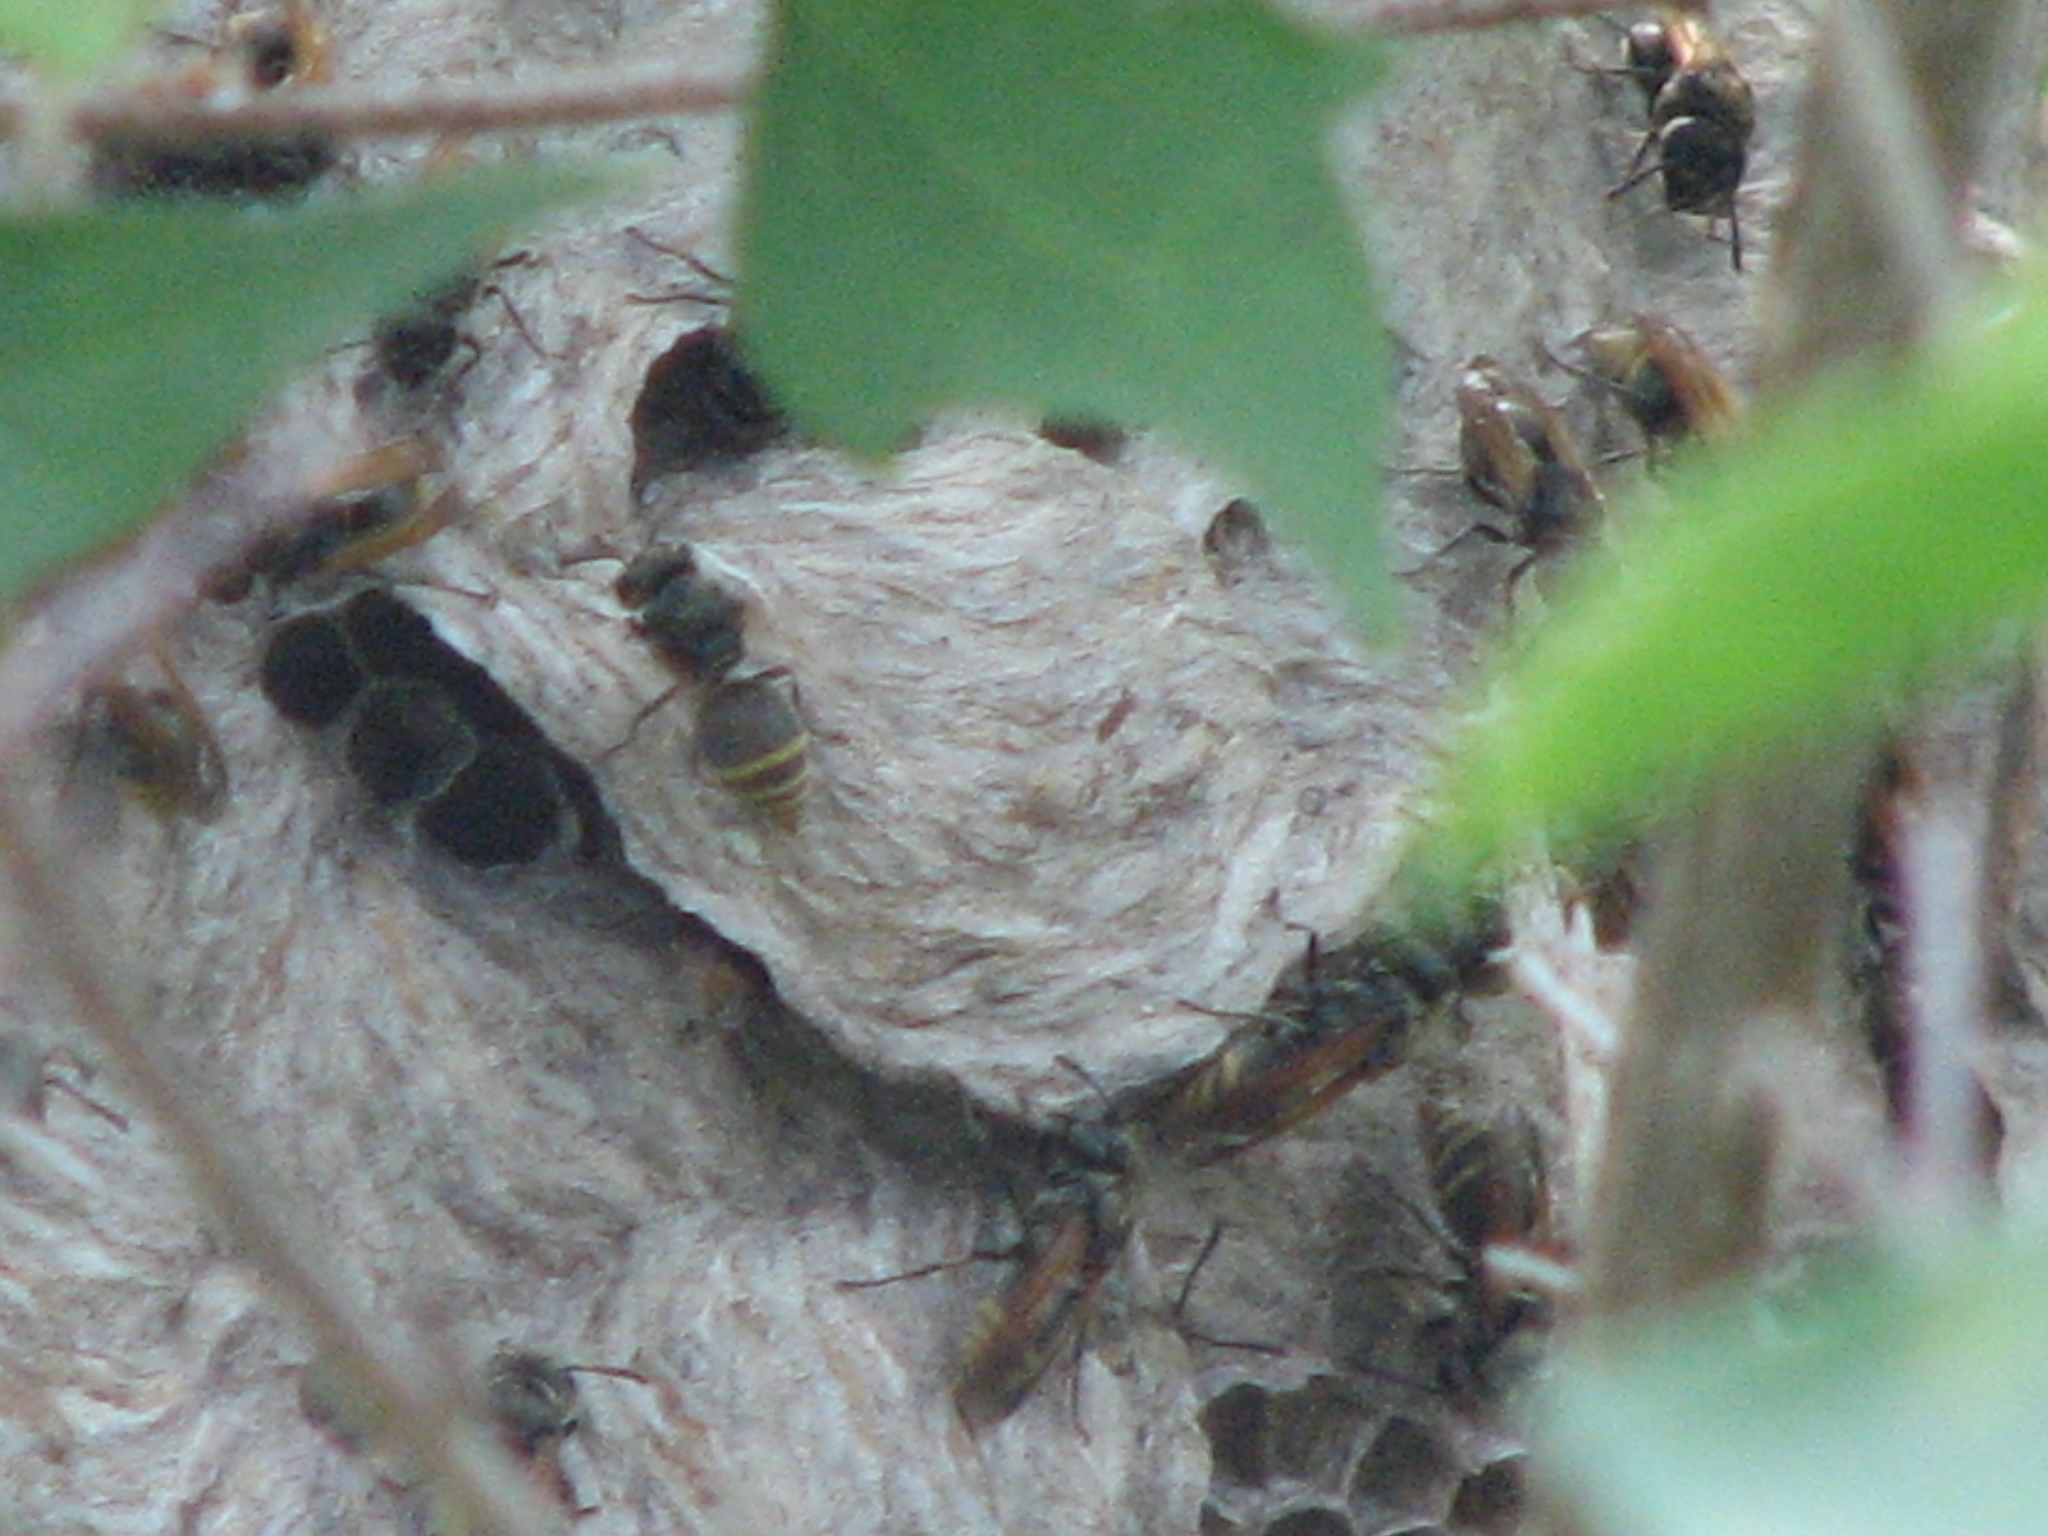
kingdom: Animalia
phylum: Arthropoda
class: Insecta
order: Hymenoptera
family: Vespidae
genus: Brachygastra
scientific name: Brachygastra mellifica
